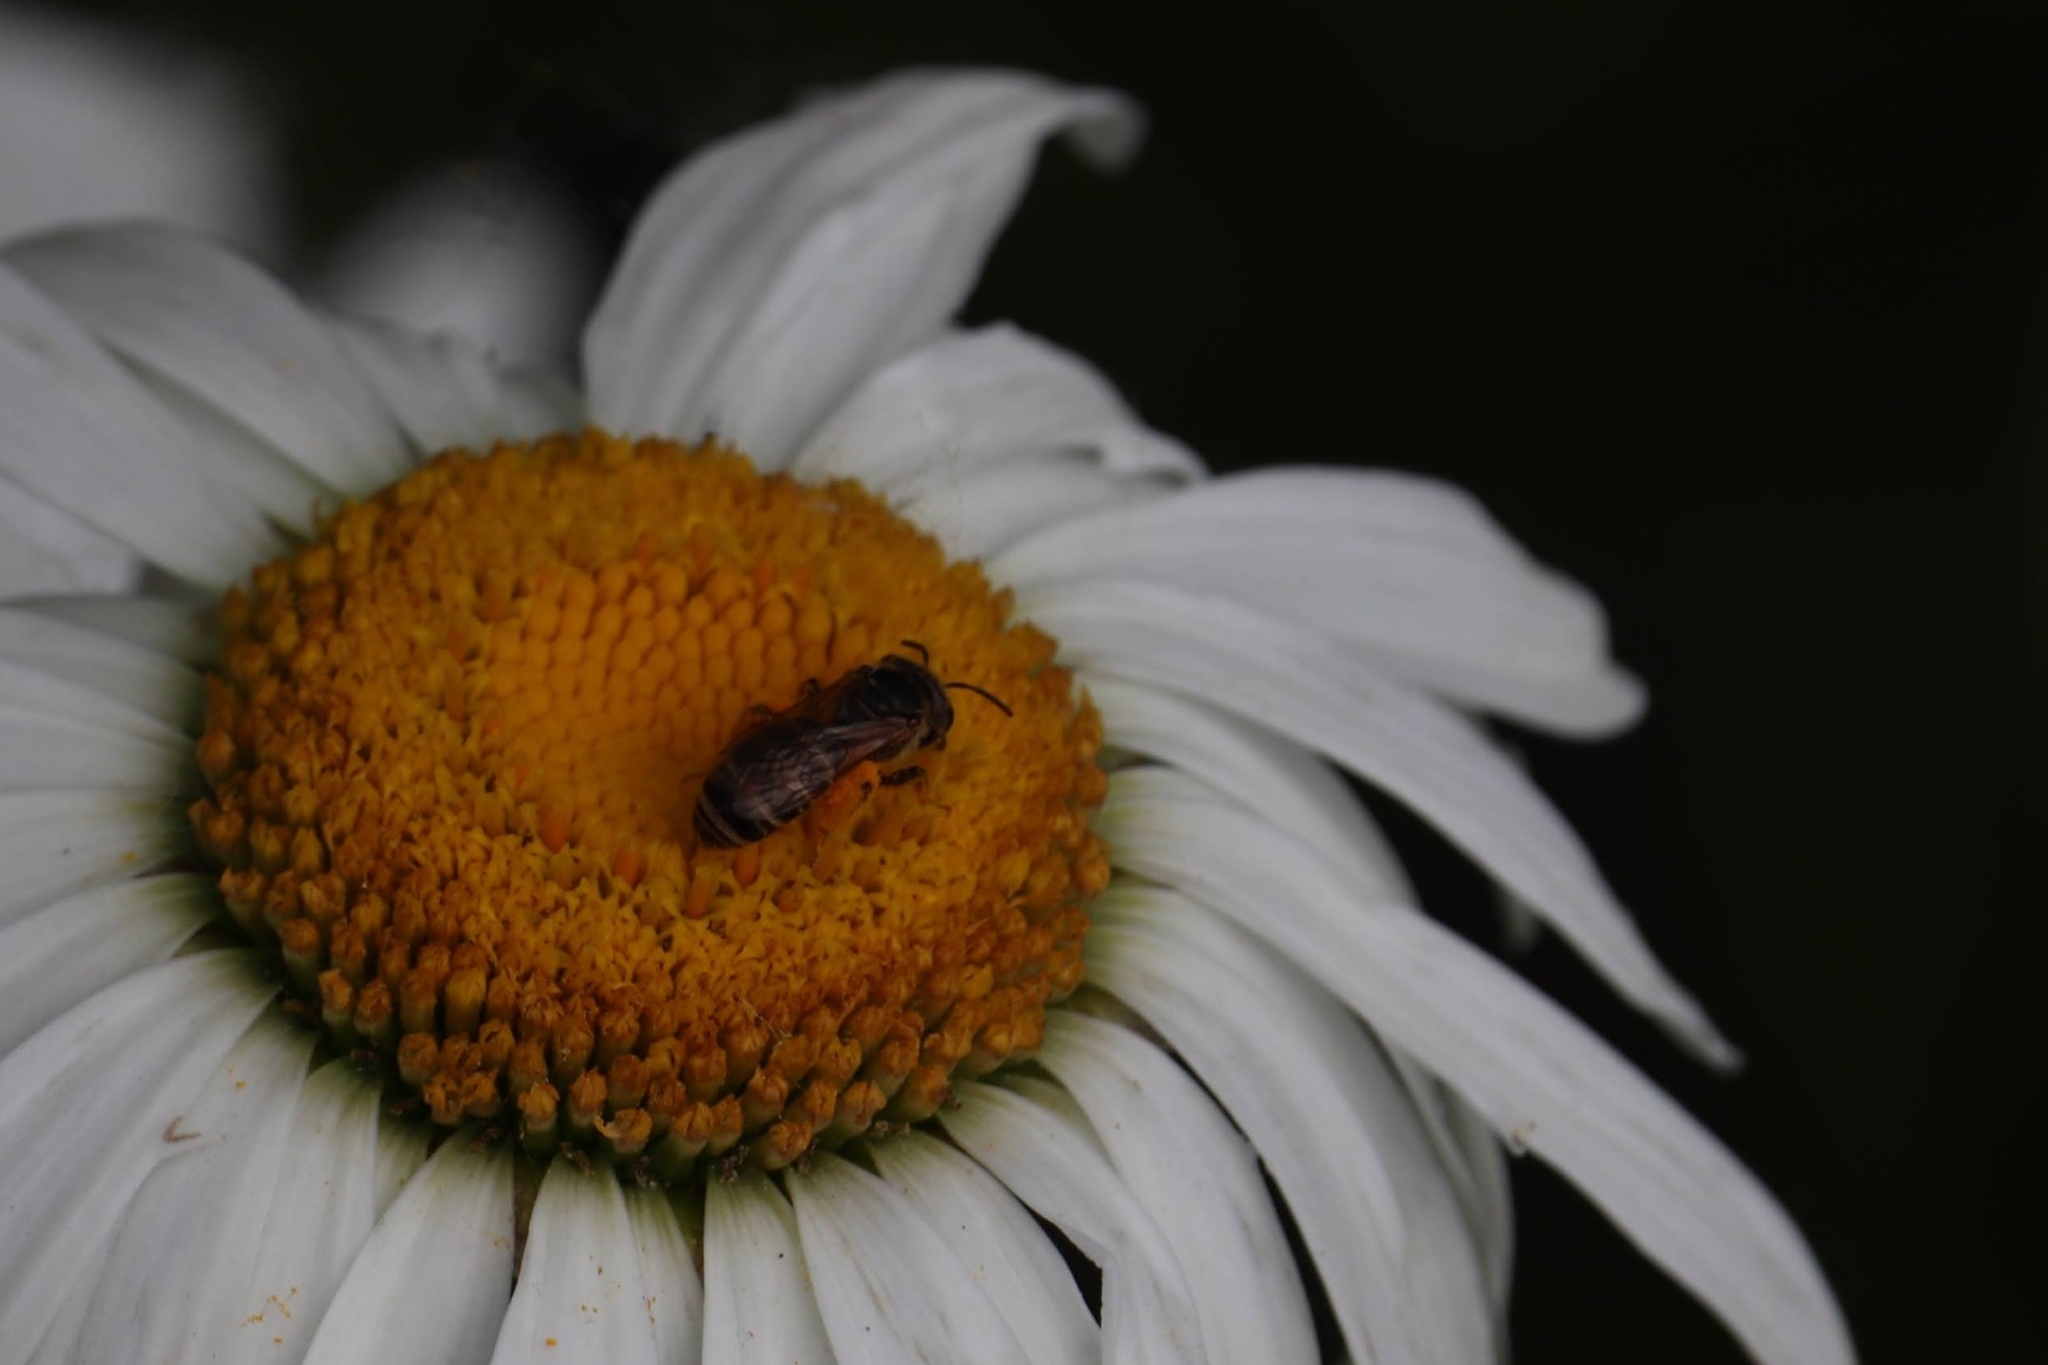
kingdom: Animalia
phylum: Arthropoda
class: Insecta
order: Hymenoptera
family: Halictidae
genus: Halictus
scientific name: Halictus ligatus
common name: Ligated furrow bee
